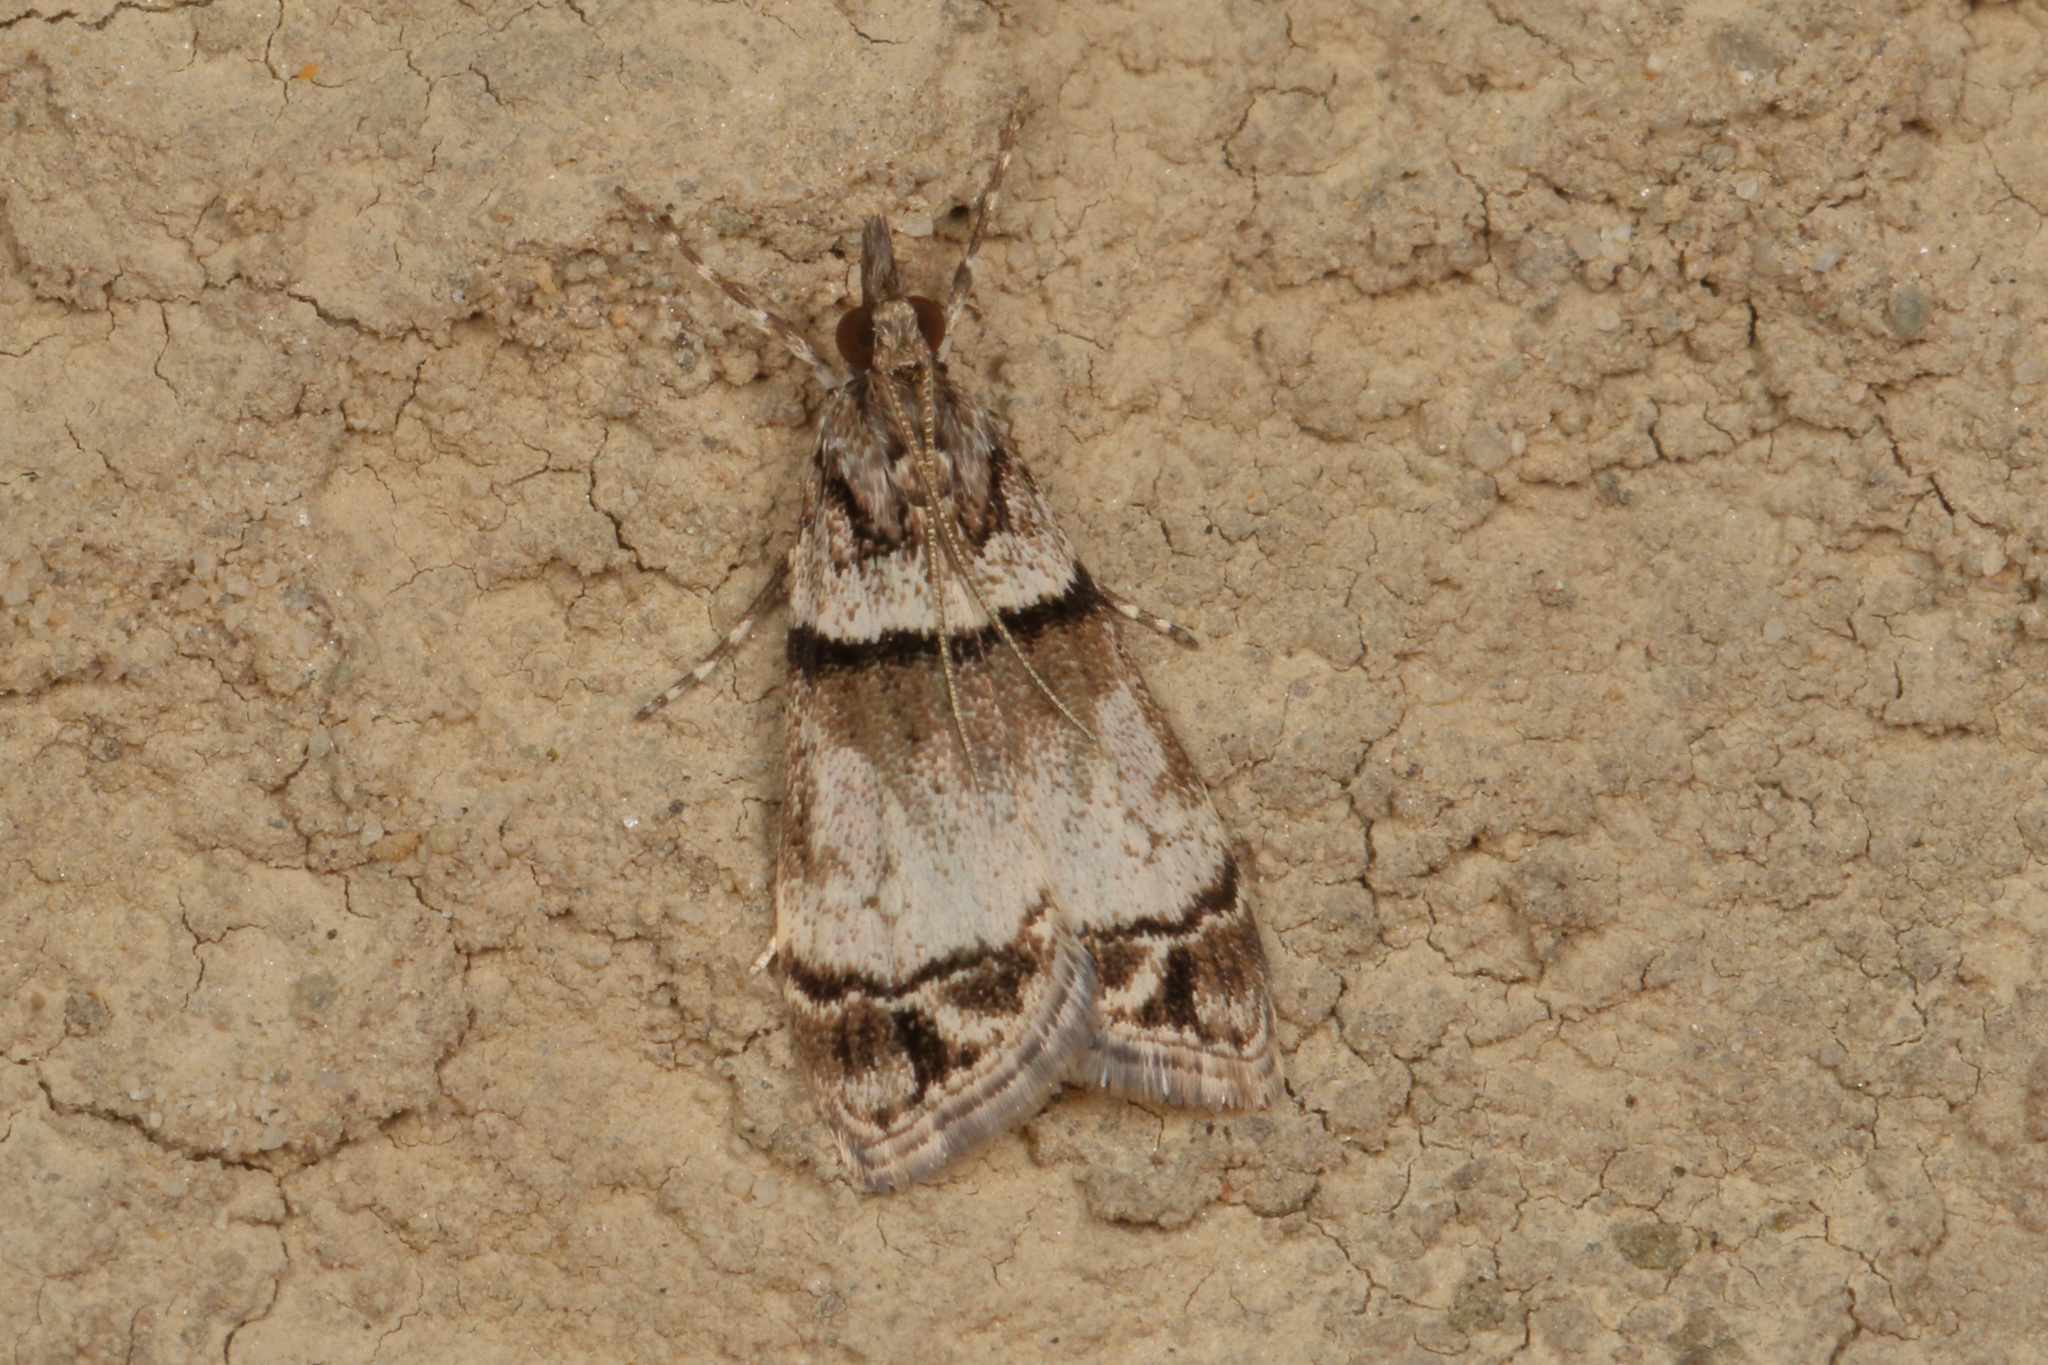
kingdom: Animalia
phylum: Arthropoda
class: Insecta
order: Lepidoptera
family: Crambidae
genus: Eudonia
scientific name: Eudonia choristis
